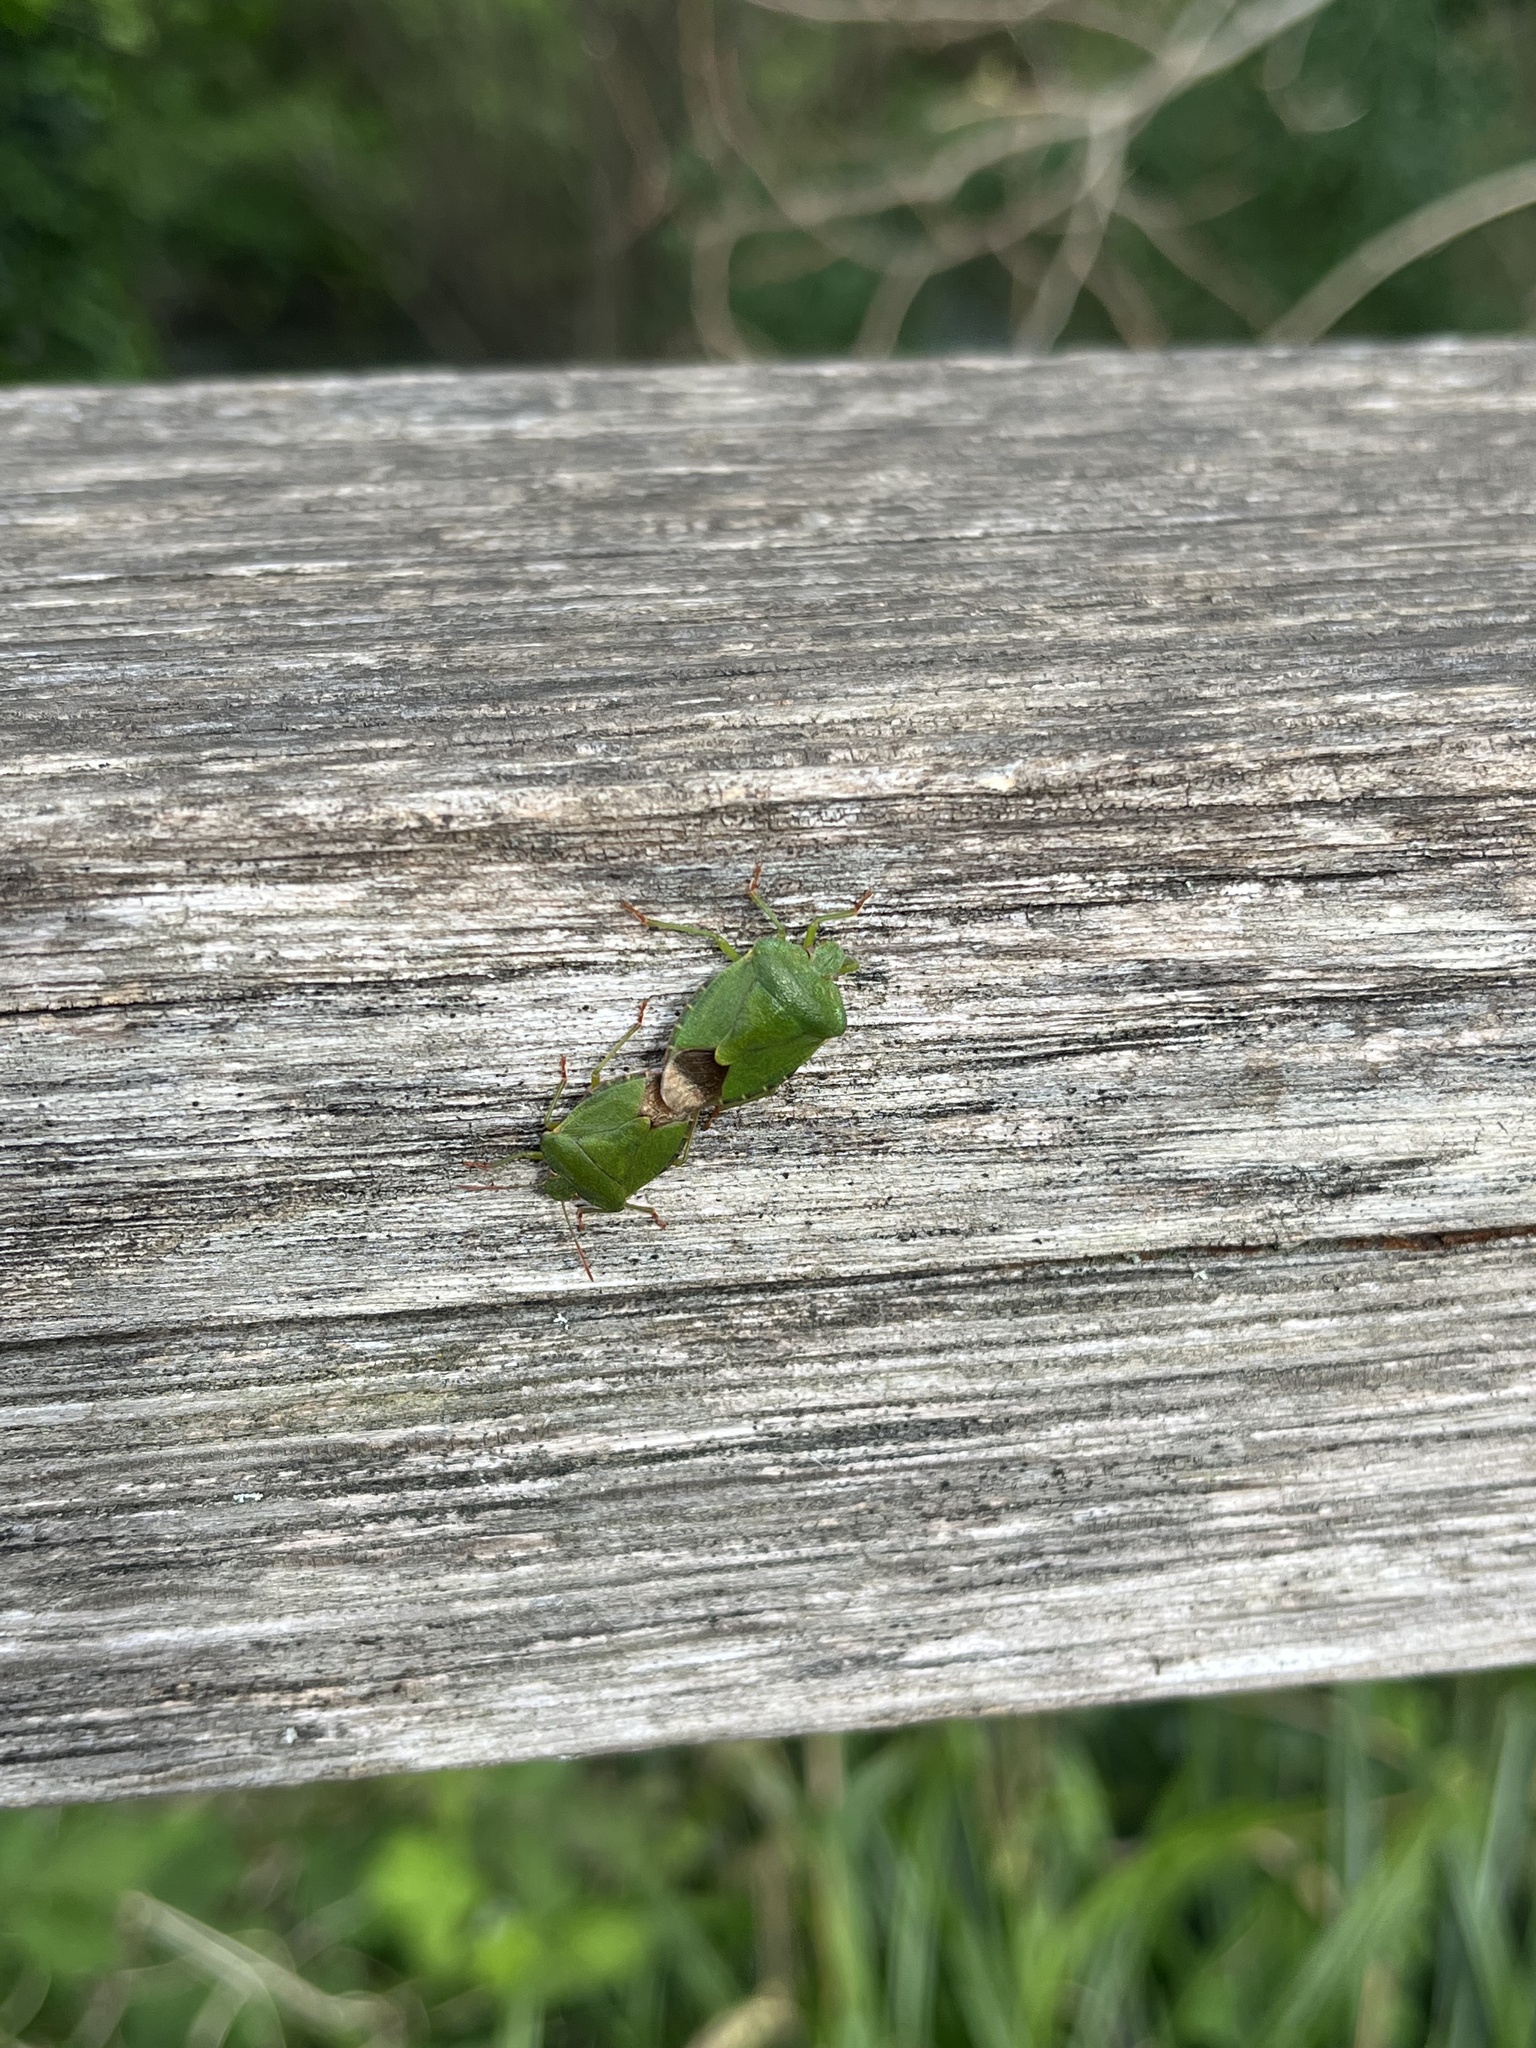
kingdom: Animalia
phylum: Arthropoda
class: Insecta
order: Hemiptera
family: Pentatomidae
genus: Palomena
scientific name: Palomena prasina
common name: Green shieldbug
